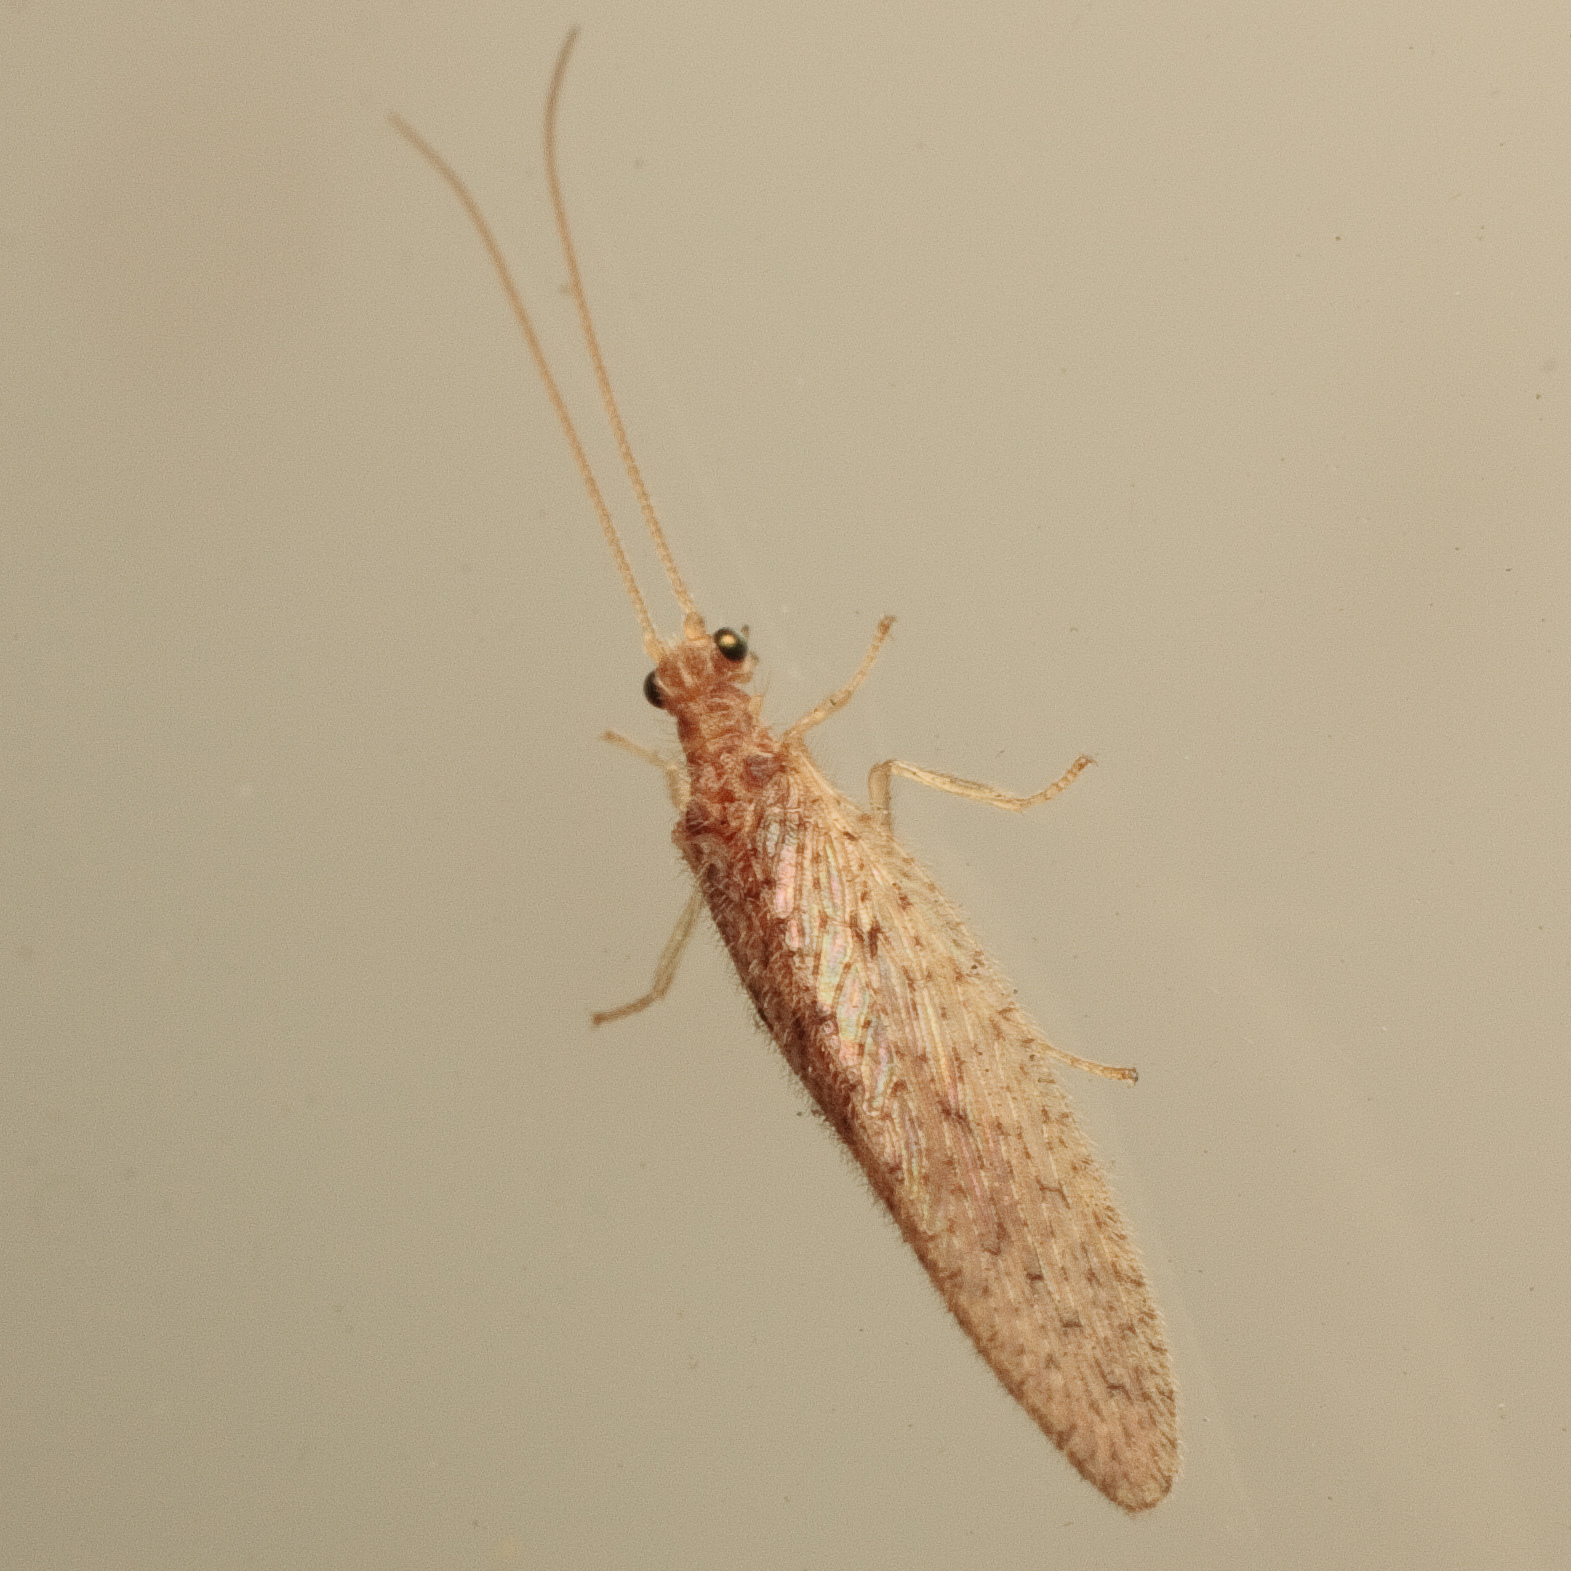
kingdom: Animalia
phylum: Arthropoda
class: Insecta
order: Neuroptera
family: Hemerobiidae
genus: Micromus
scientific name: Micromus subanticus
